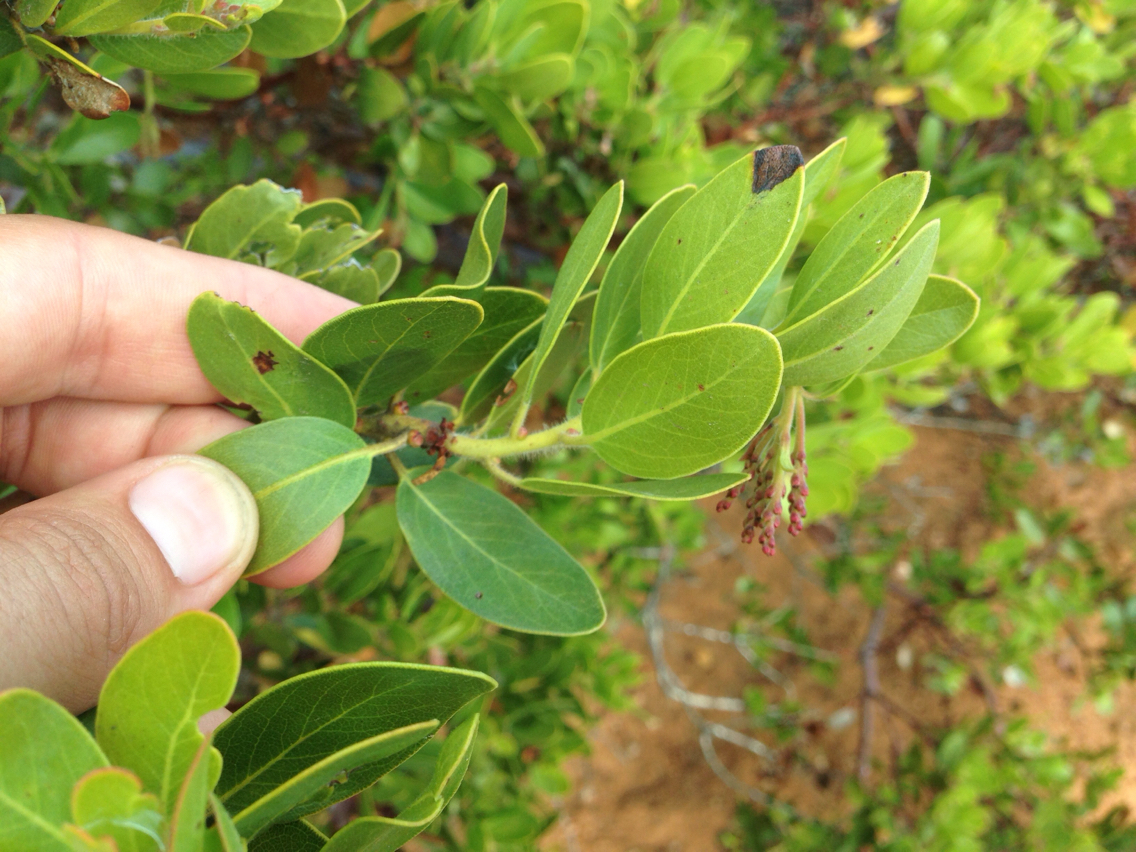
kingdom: Plantae
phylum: Tracheophyta
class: Magnoliopsida
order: Ericales
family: Ericaceae
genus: Arctostaphylos
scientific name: Arctostaphylos insularis
